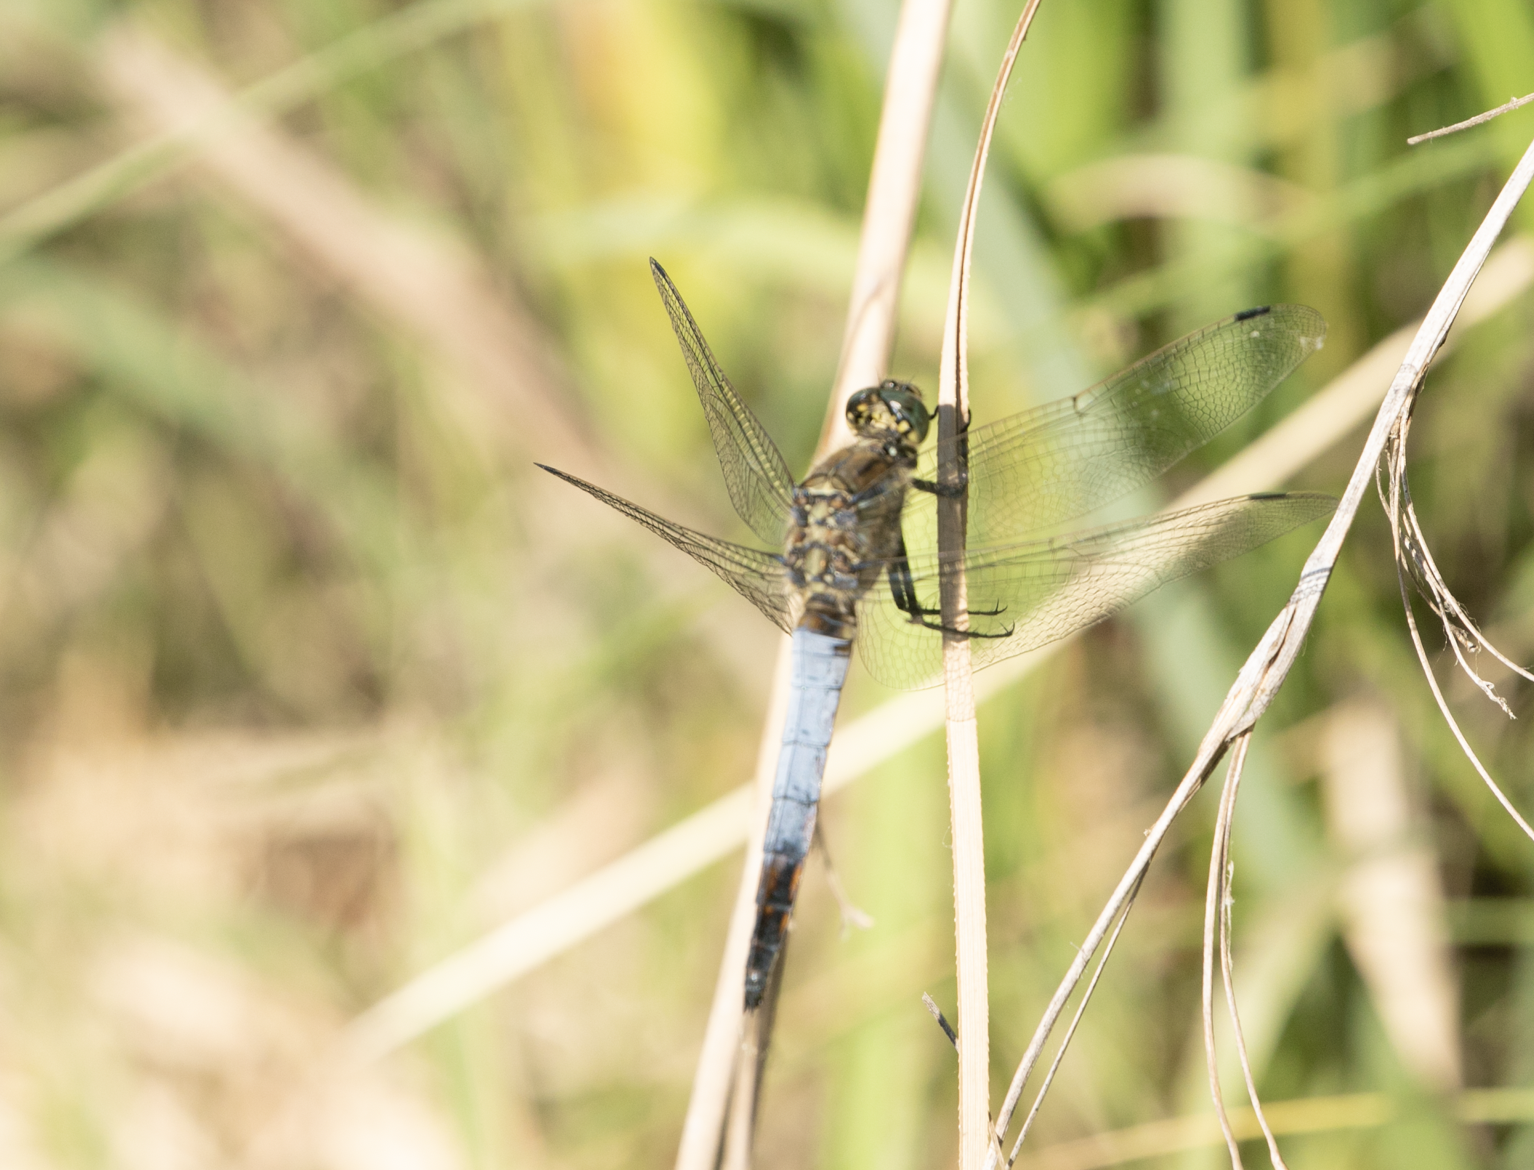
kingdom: Animalia
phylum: Arthropoda
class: Insecta
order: Odonata
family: Libellulidae
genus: Orthetrum
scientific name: Orthetrum cancellatum
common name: Black-tailed skimmer
